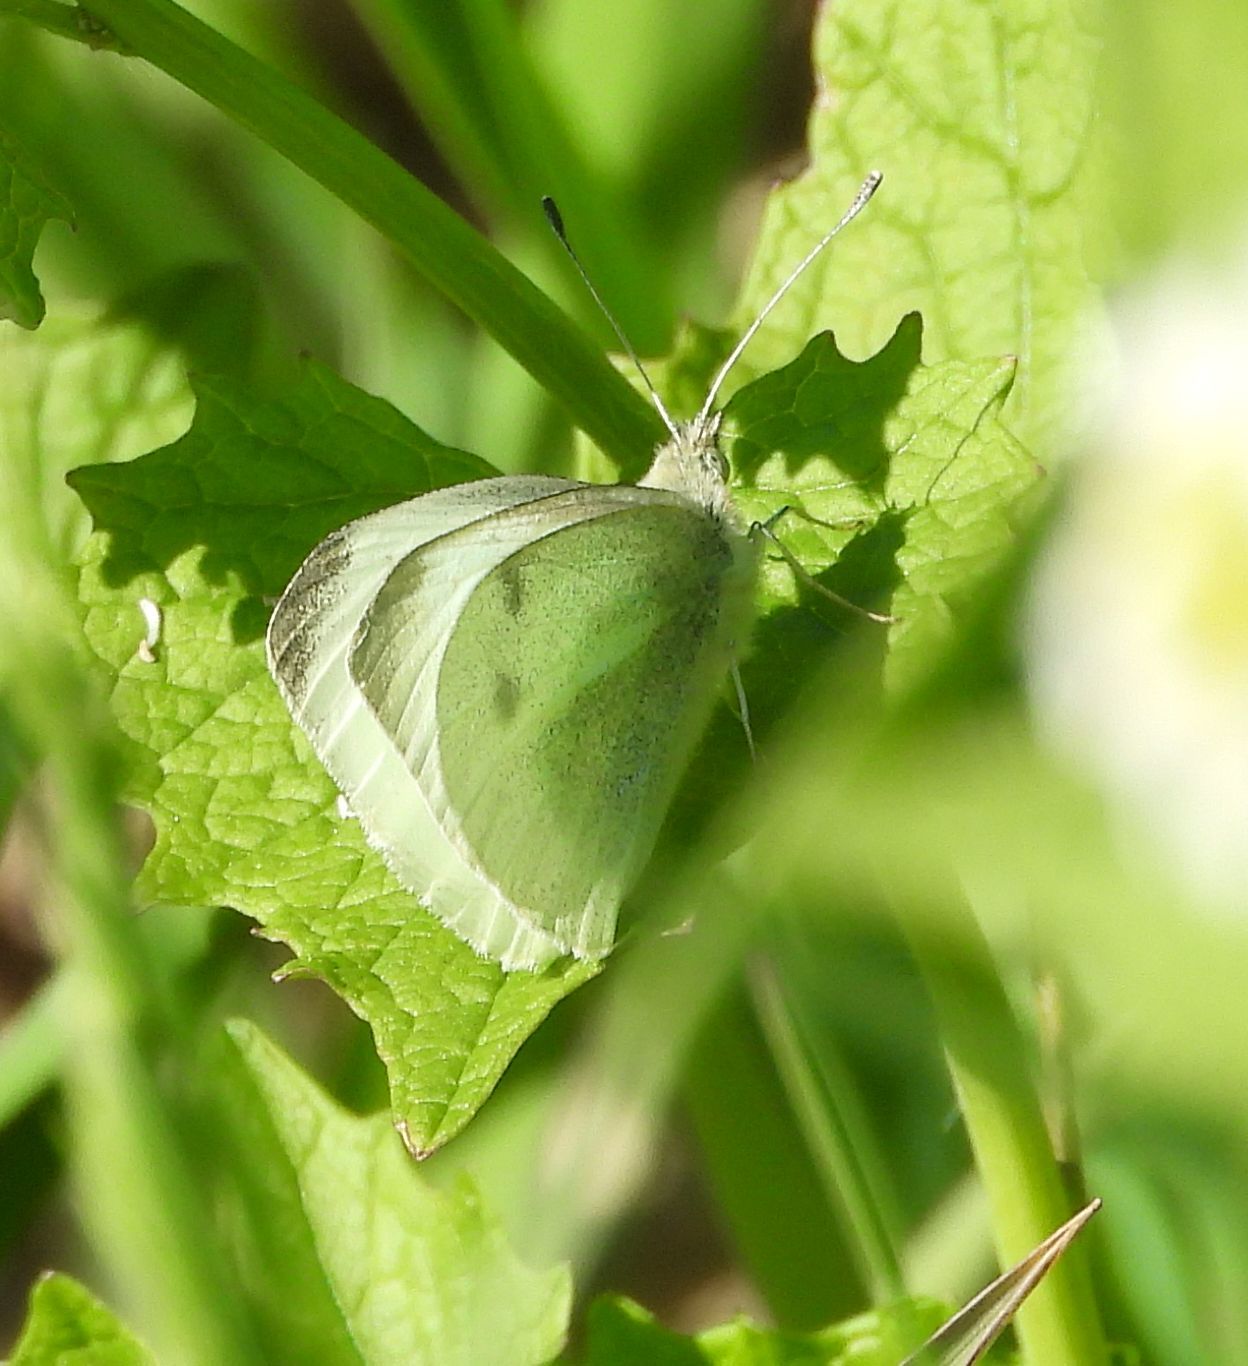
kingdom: Animalia
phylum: Arthropoda
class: Insecta
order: Lepidoptera
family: Pieridae
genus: Pieris
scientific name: Pieris rapae
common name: Small white
